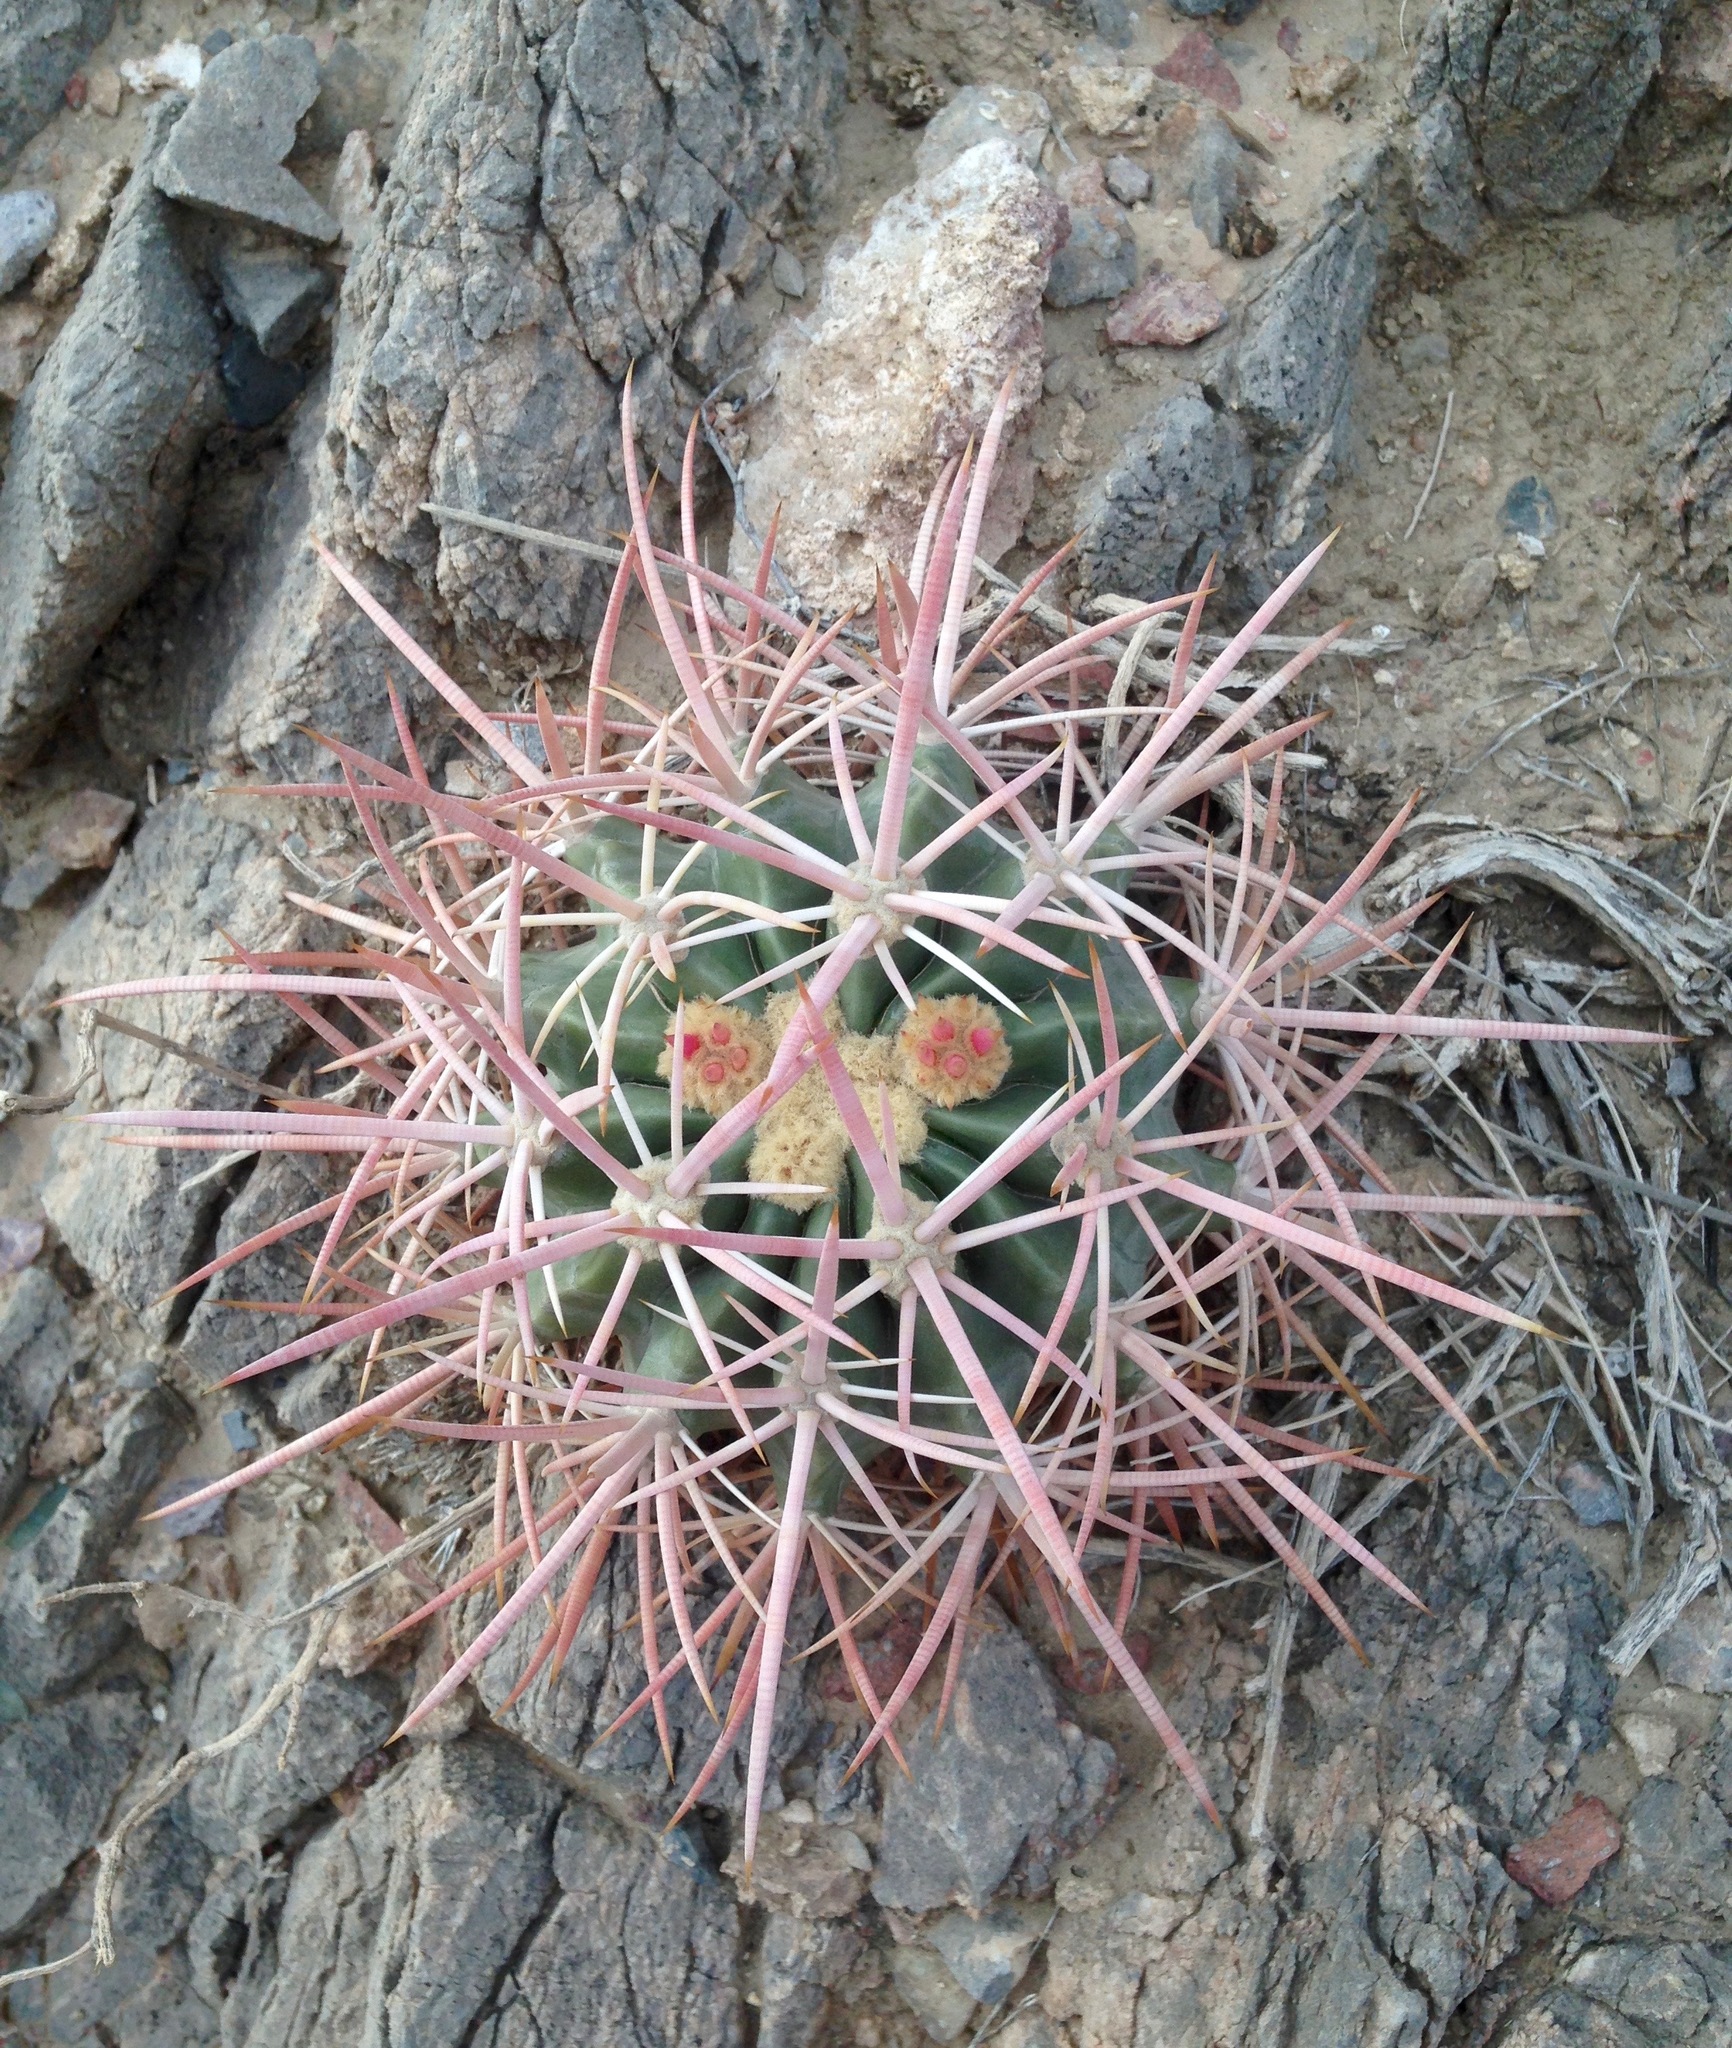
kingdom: Plantae
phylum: Tracheophyta
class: Magnoliopsida
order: Caryophyllales
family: Cactaceae
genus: Echinocactus
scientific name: Echinocactus polycephalus
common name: Cottontop cactus
